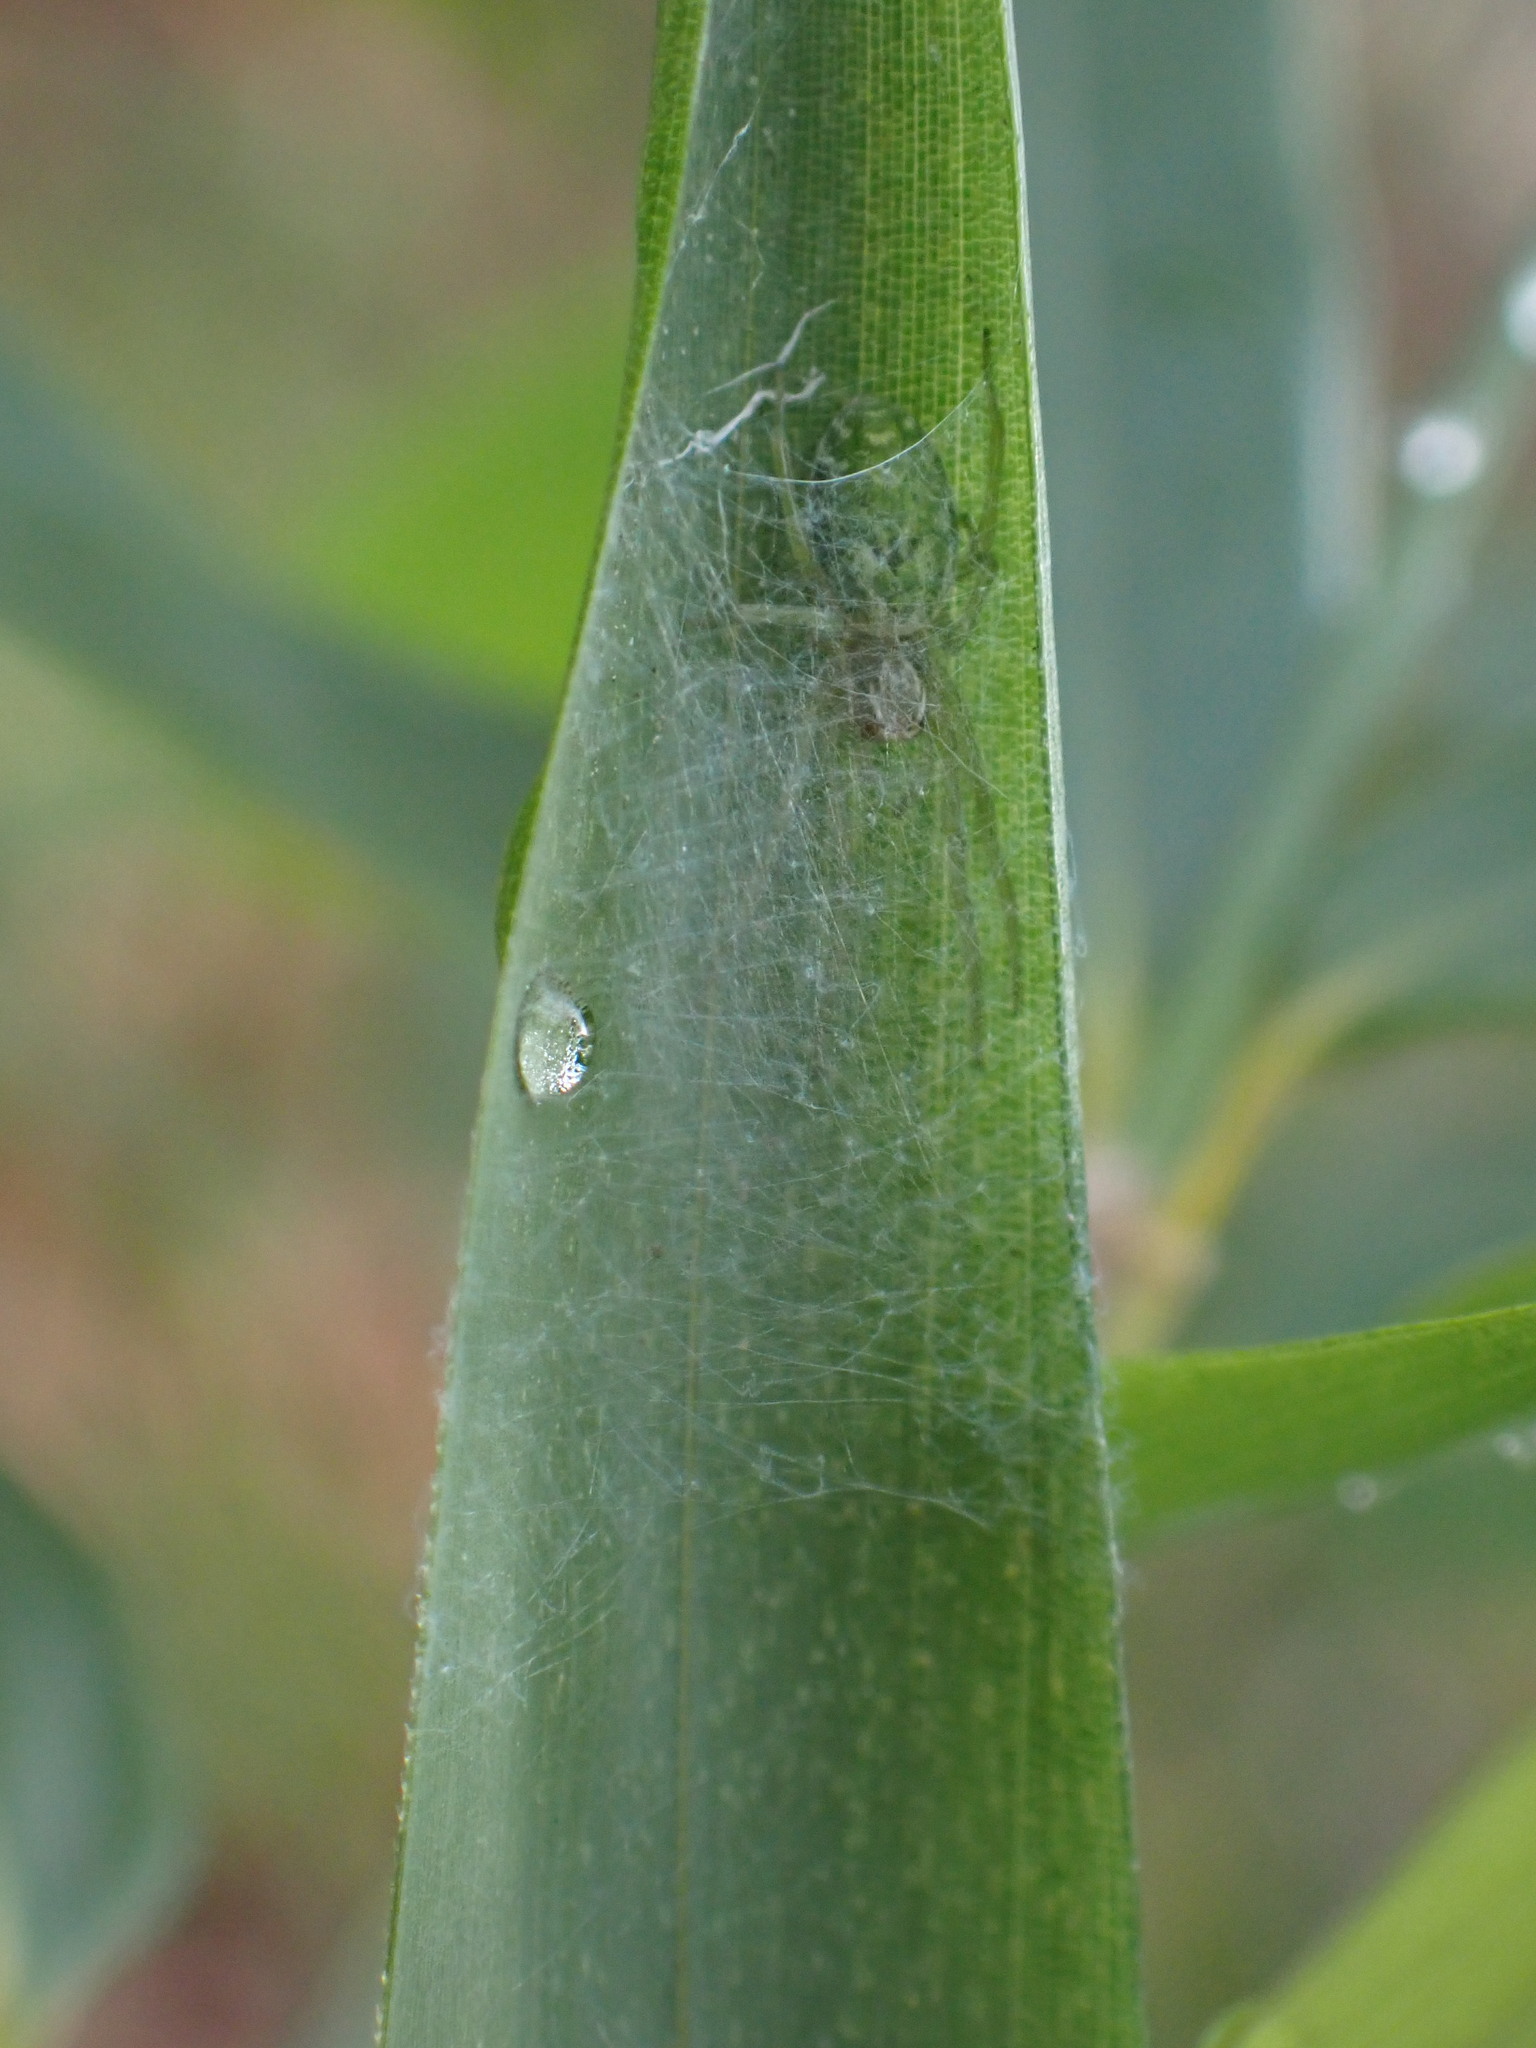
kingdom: Animalia
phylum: Arthropoda
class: Arachnida
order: Araneae
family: Dictynidae
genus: Nigma
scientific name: Nigma walckenaeri
